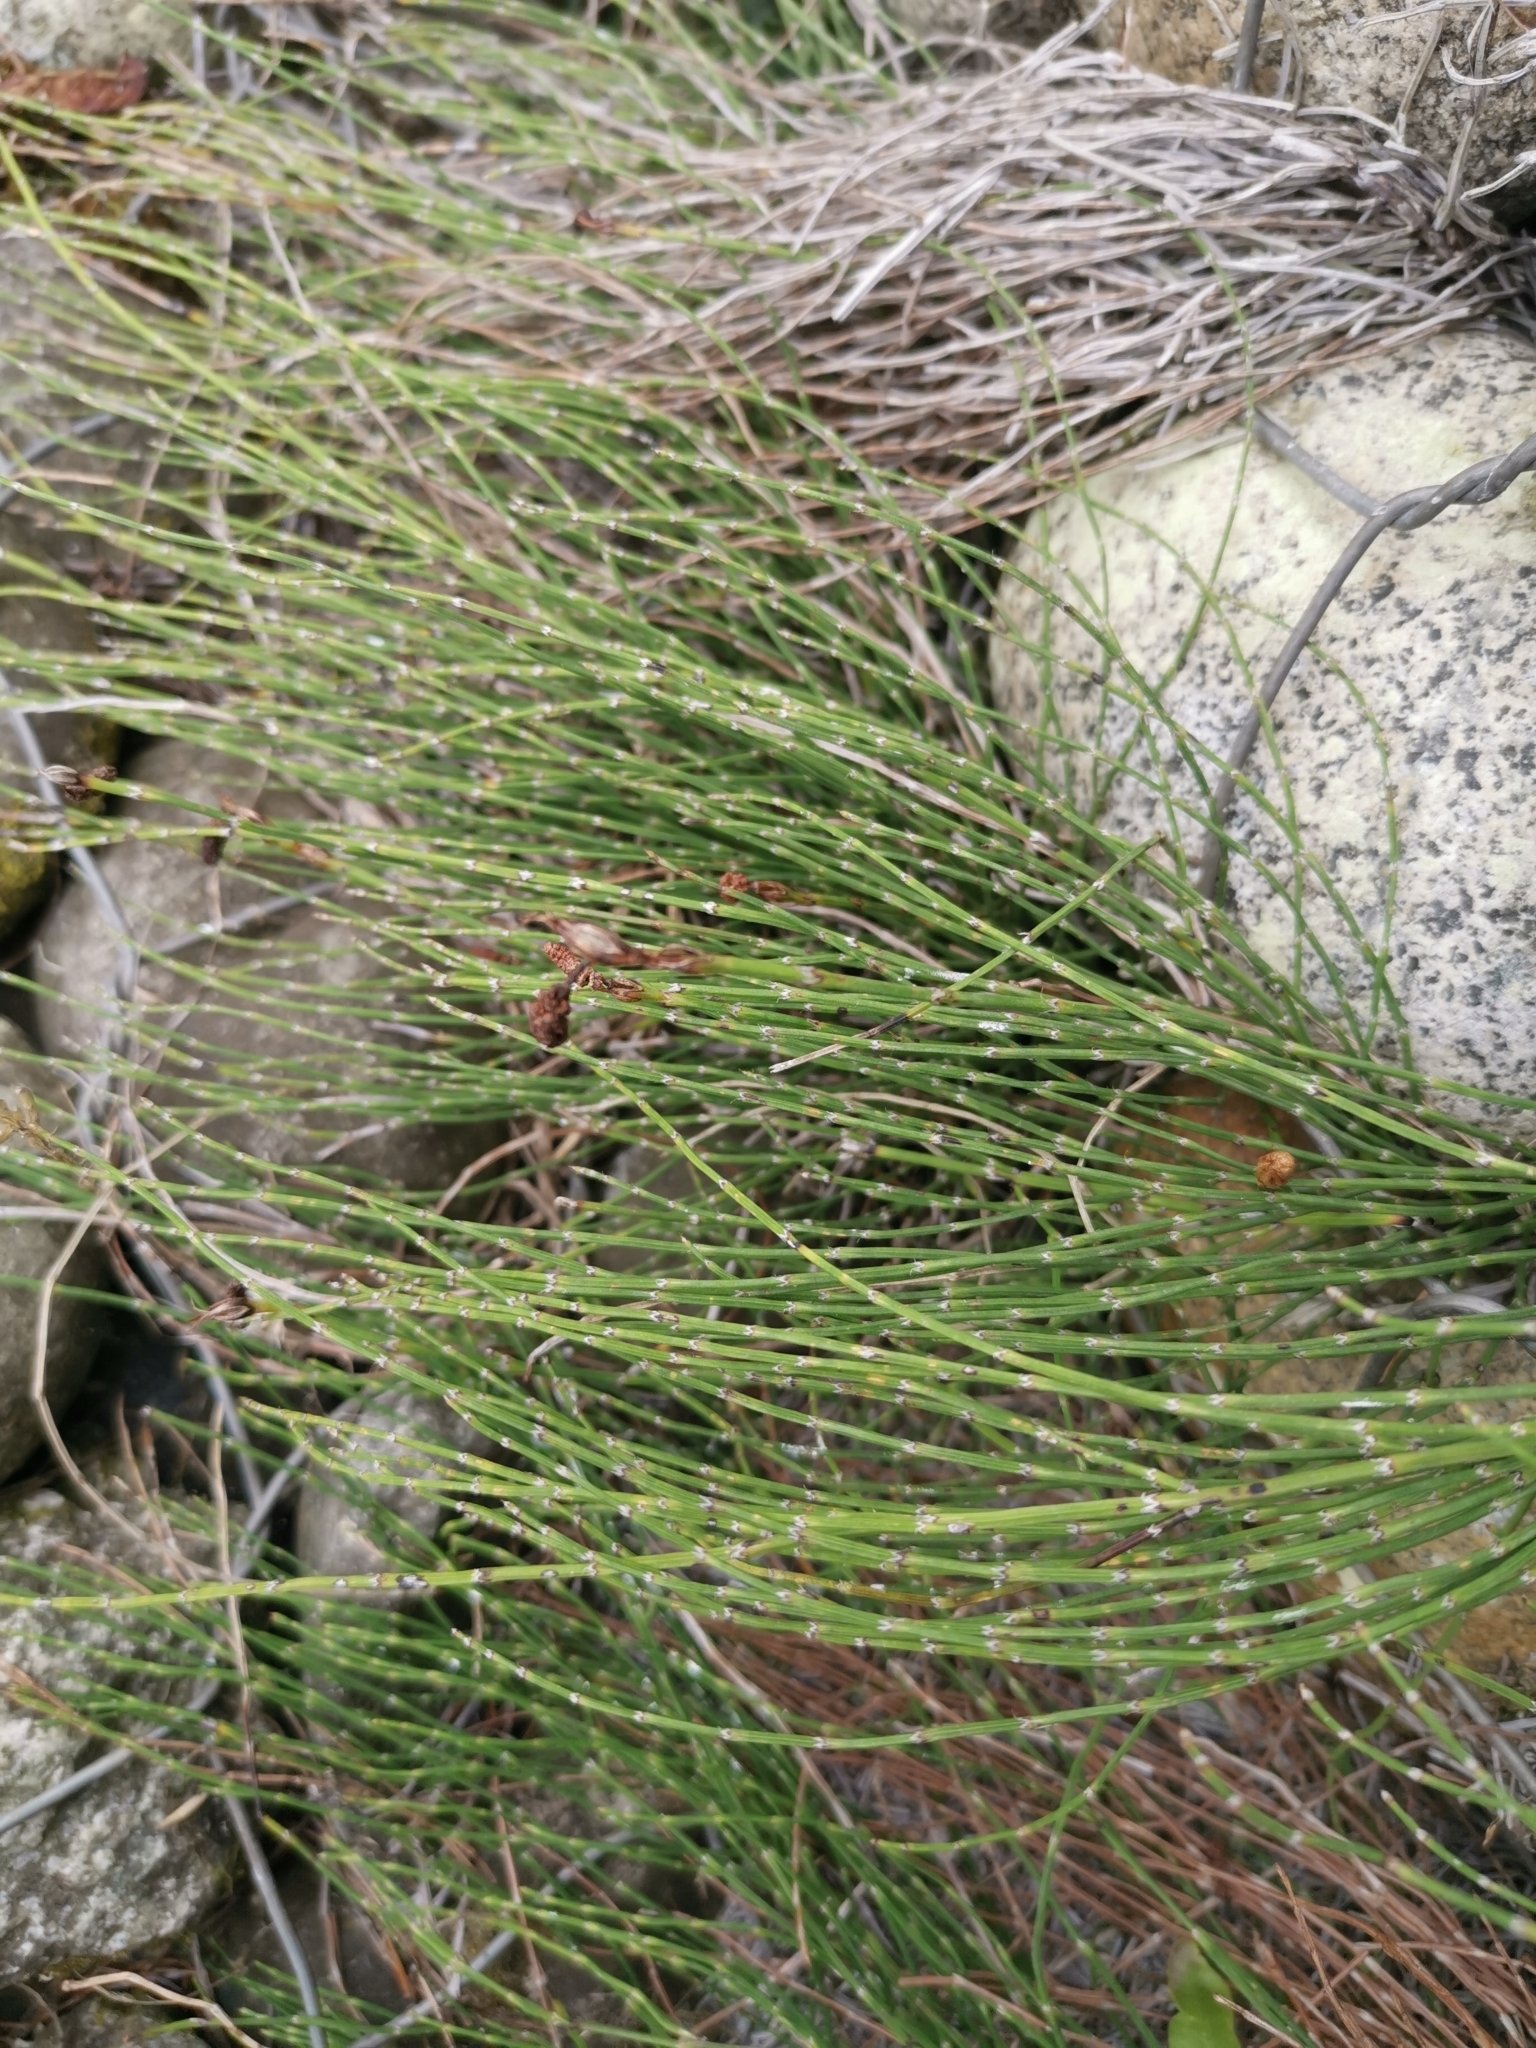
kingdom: Plantae
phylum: Tracheophyta
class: Polypodiopsida
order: Equisetales
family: Equisetaceae
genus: Equisetum
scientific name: Equisetum bogotense
